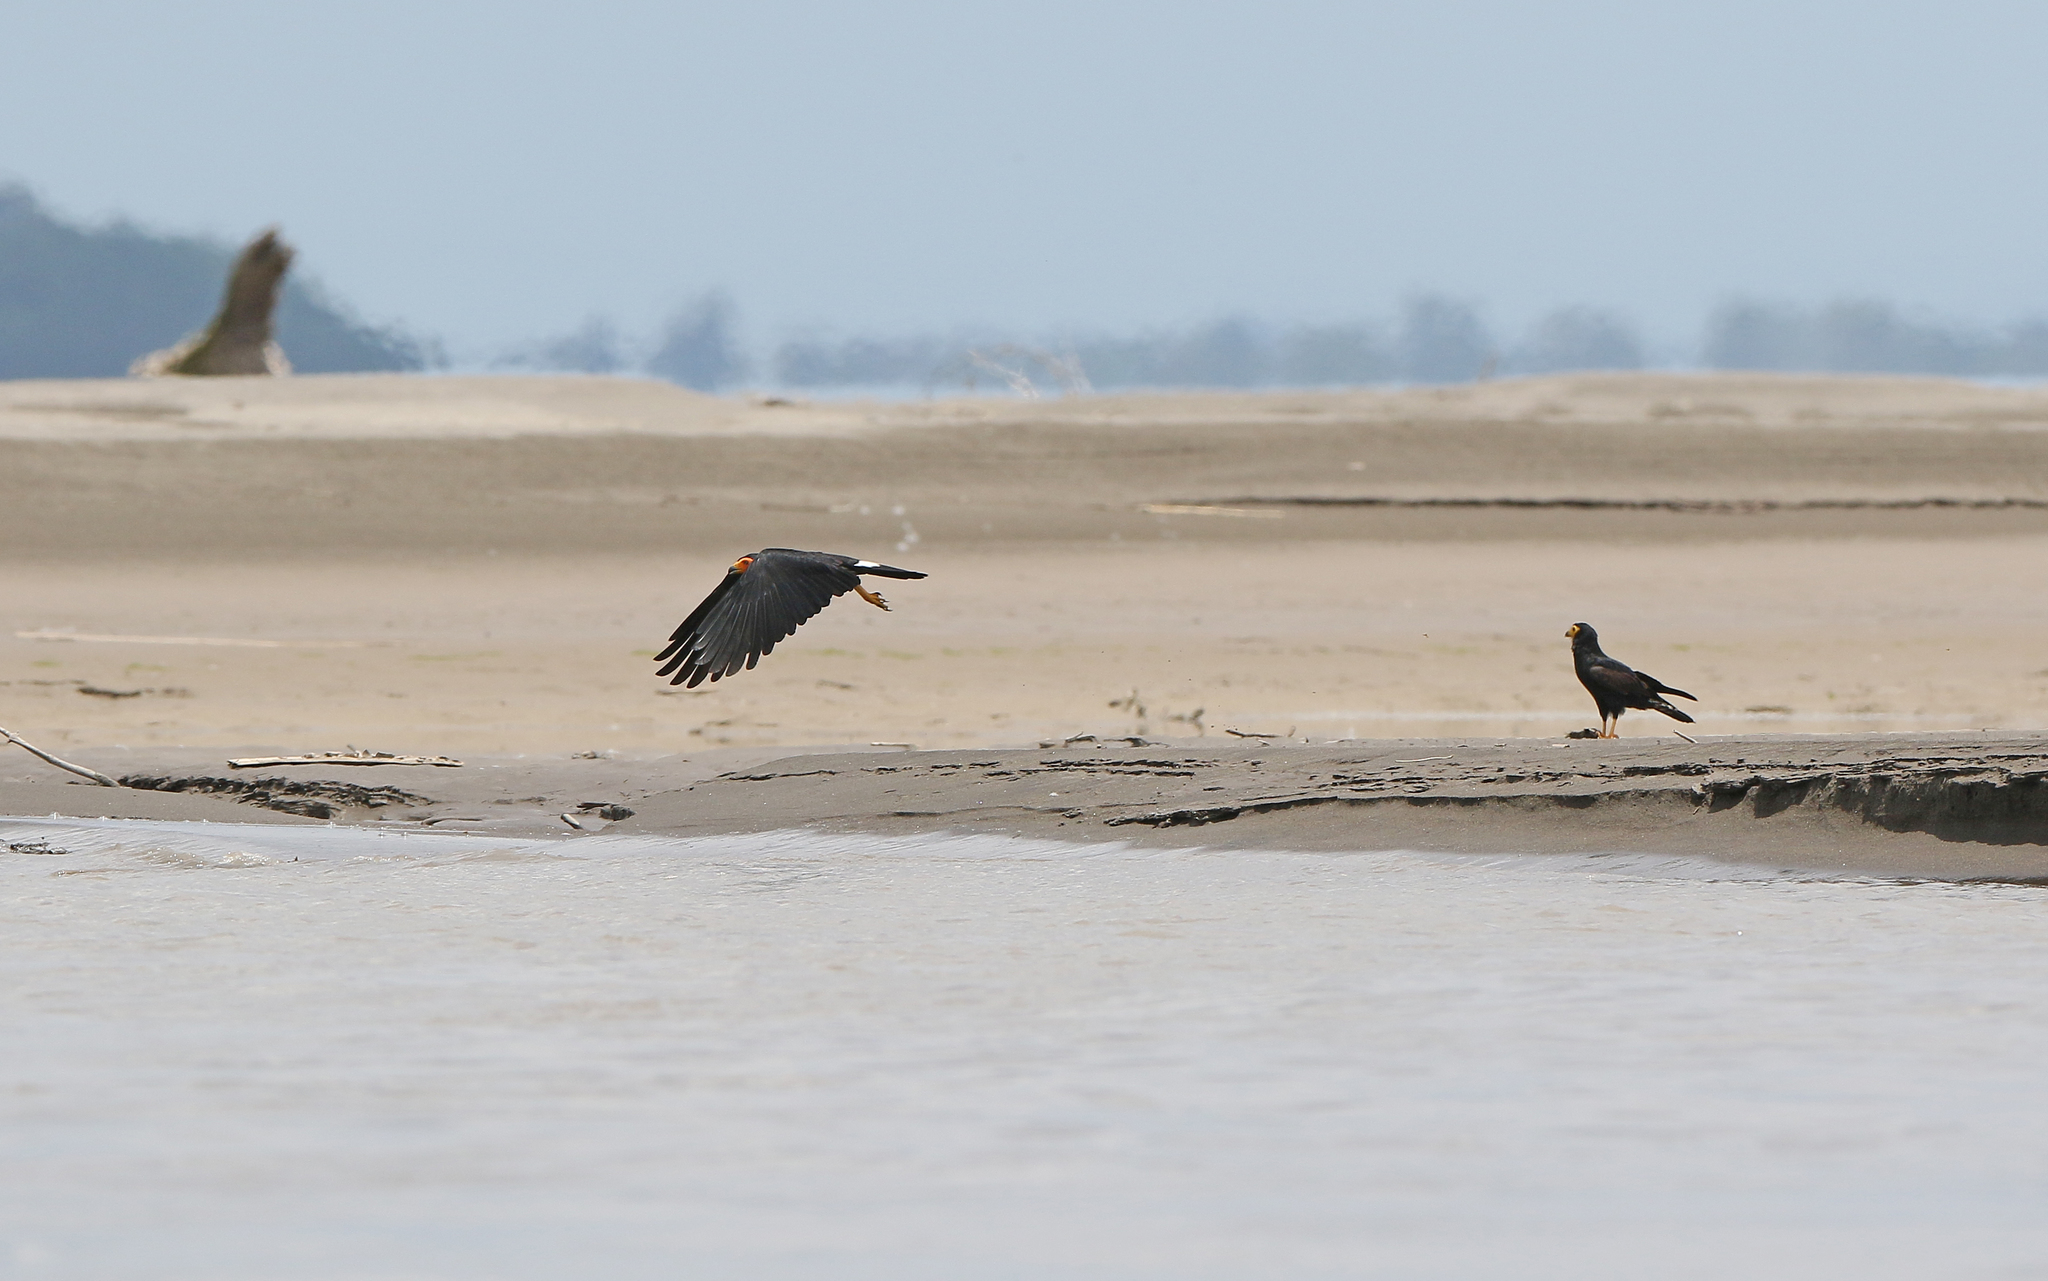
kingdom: Animalia
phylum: Chordata
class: Aves
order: Falconiformes
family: Falconidae
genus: Daptrius
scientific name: Daptrius ater
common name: Black caracara
